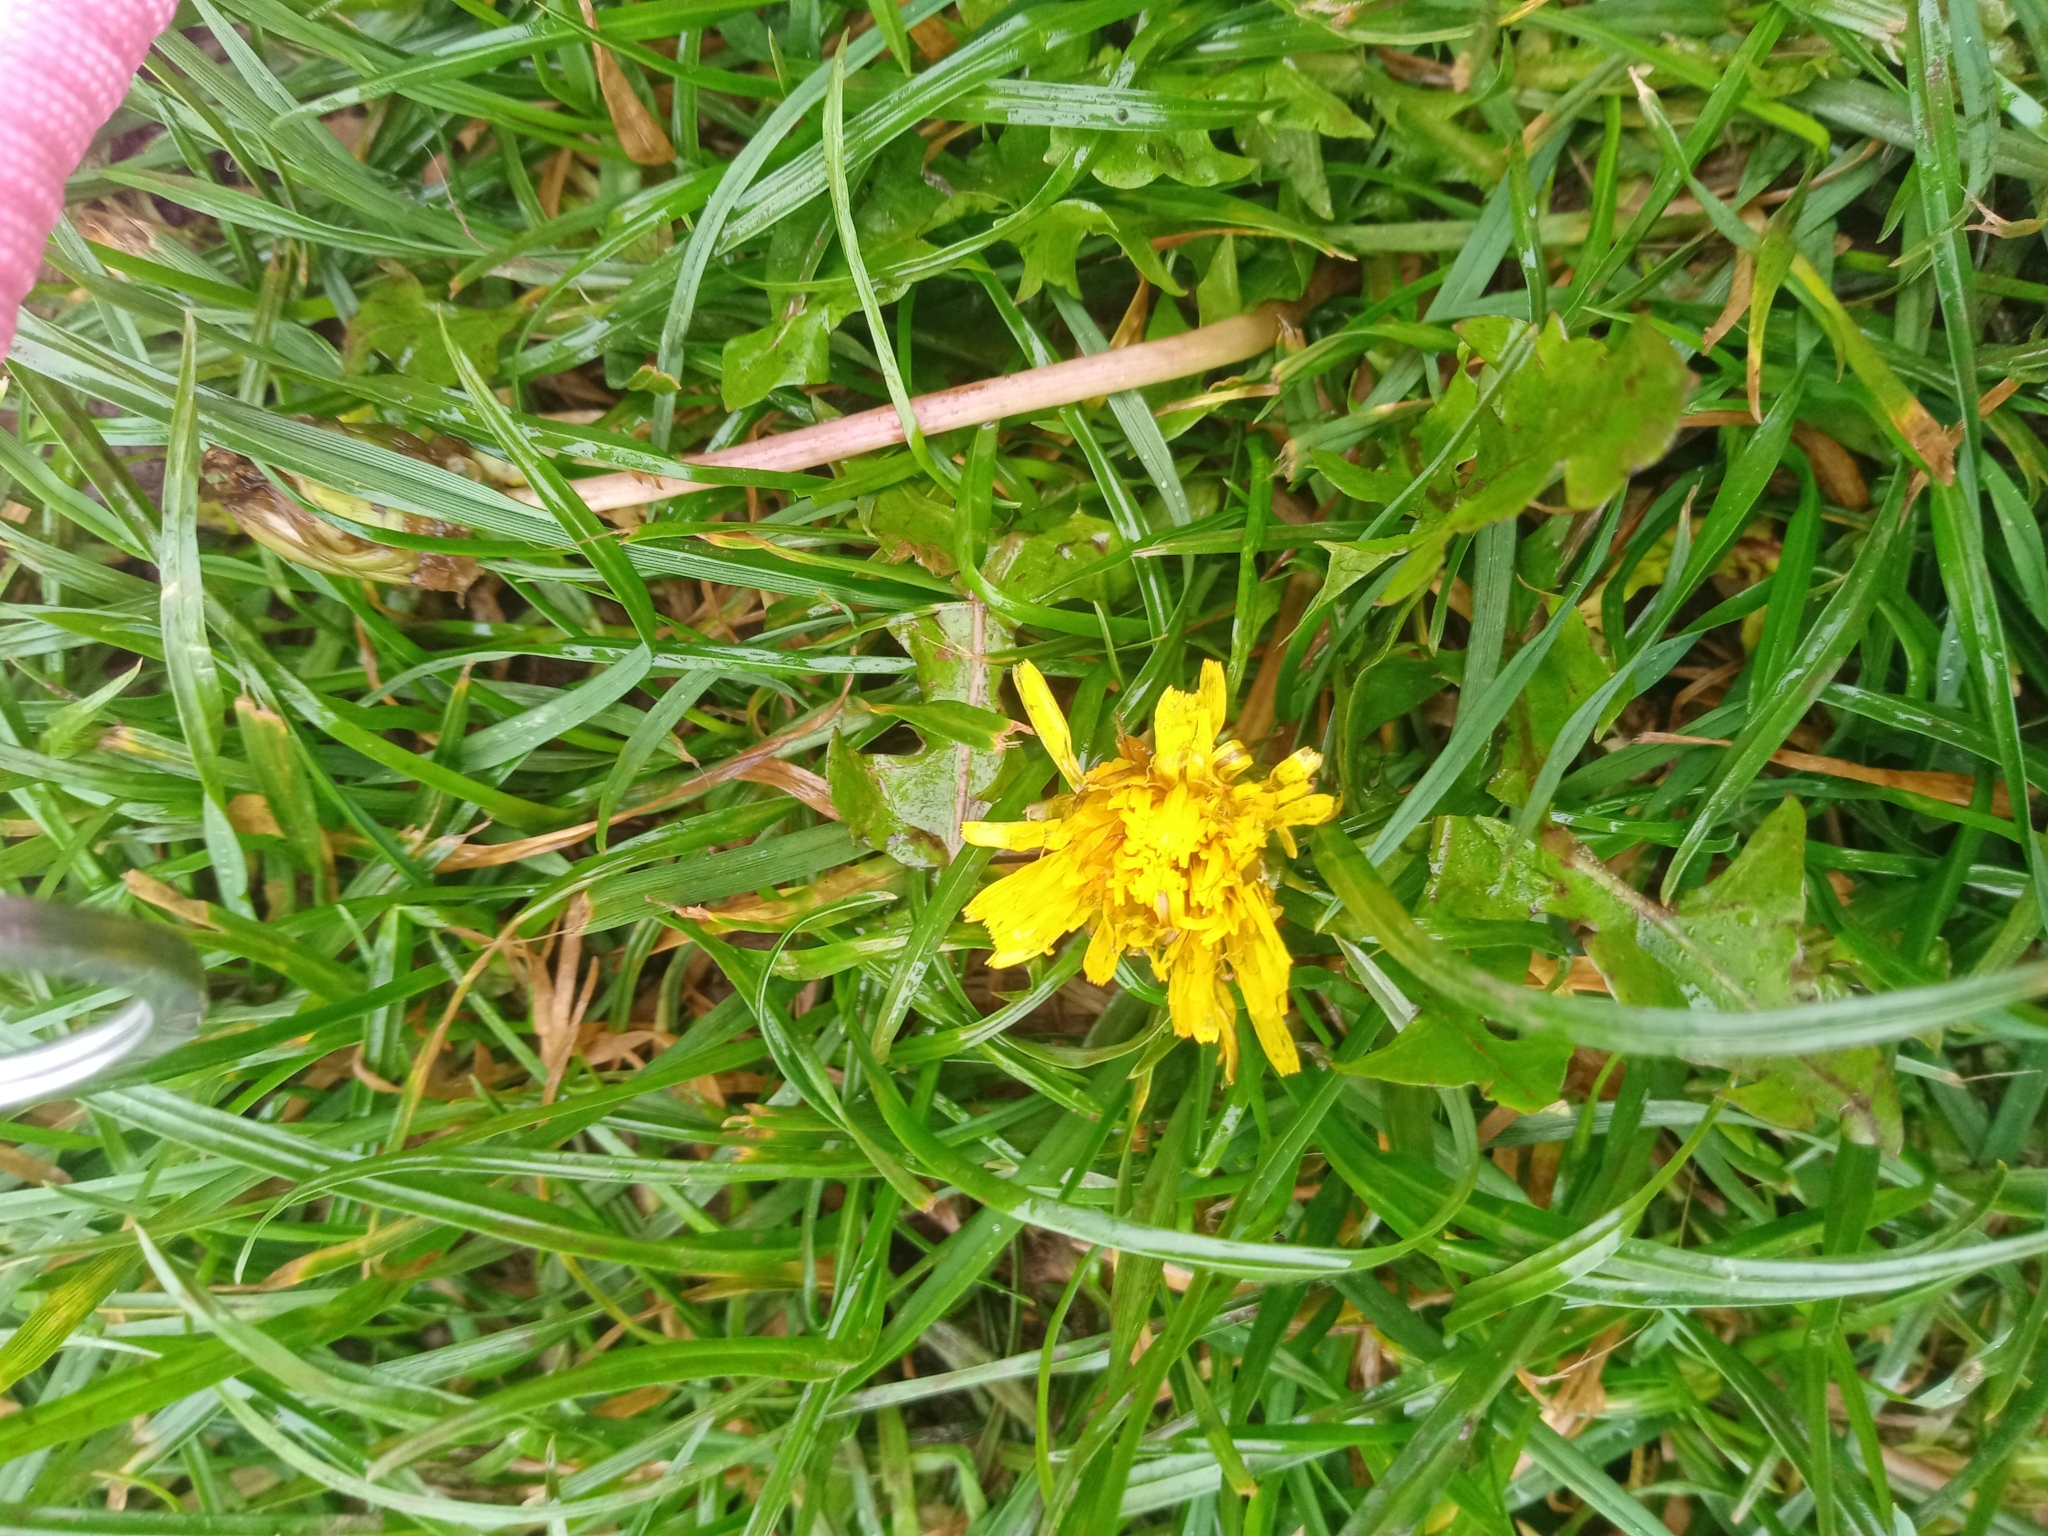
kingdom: Plantae
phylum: Tracheophyta
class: Magnoliopsida
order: Asterales
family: Asteraceae
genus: Taraxacum
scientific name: Taraxacum officinale
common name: Common dandelion
